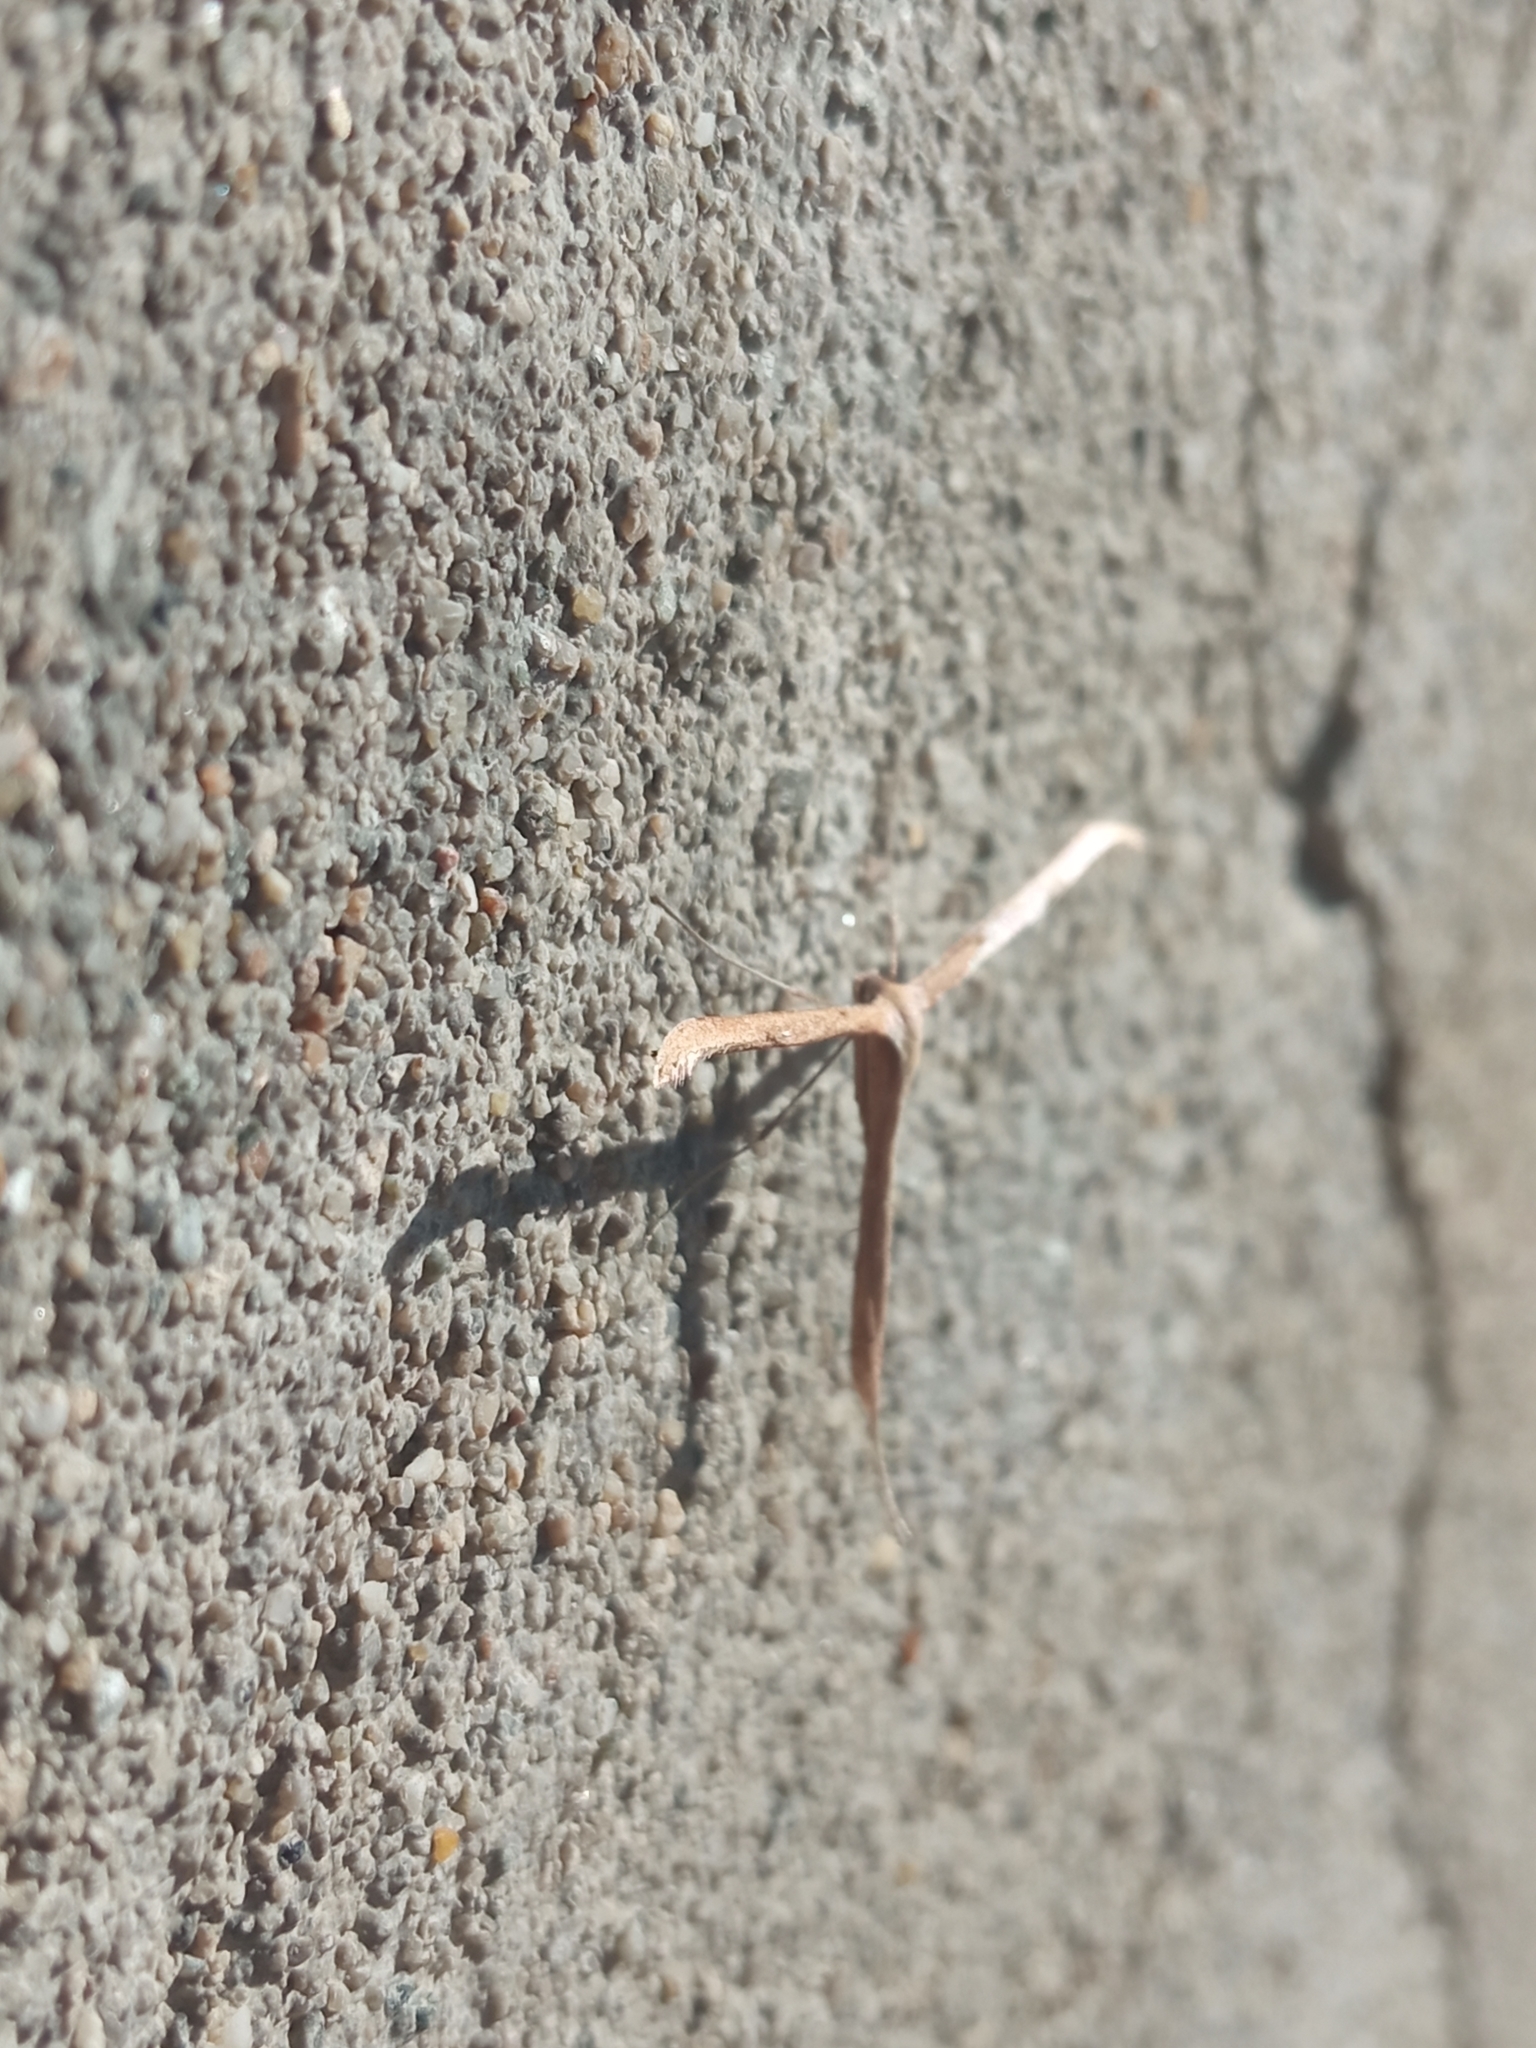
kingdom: Animalia
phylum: Arthropoda
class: Insecta
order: Lepidoptera
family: Pterophoridae
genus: Emmelina
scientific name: Emmelina monodactyla
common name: Common plume
